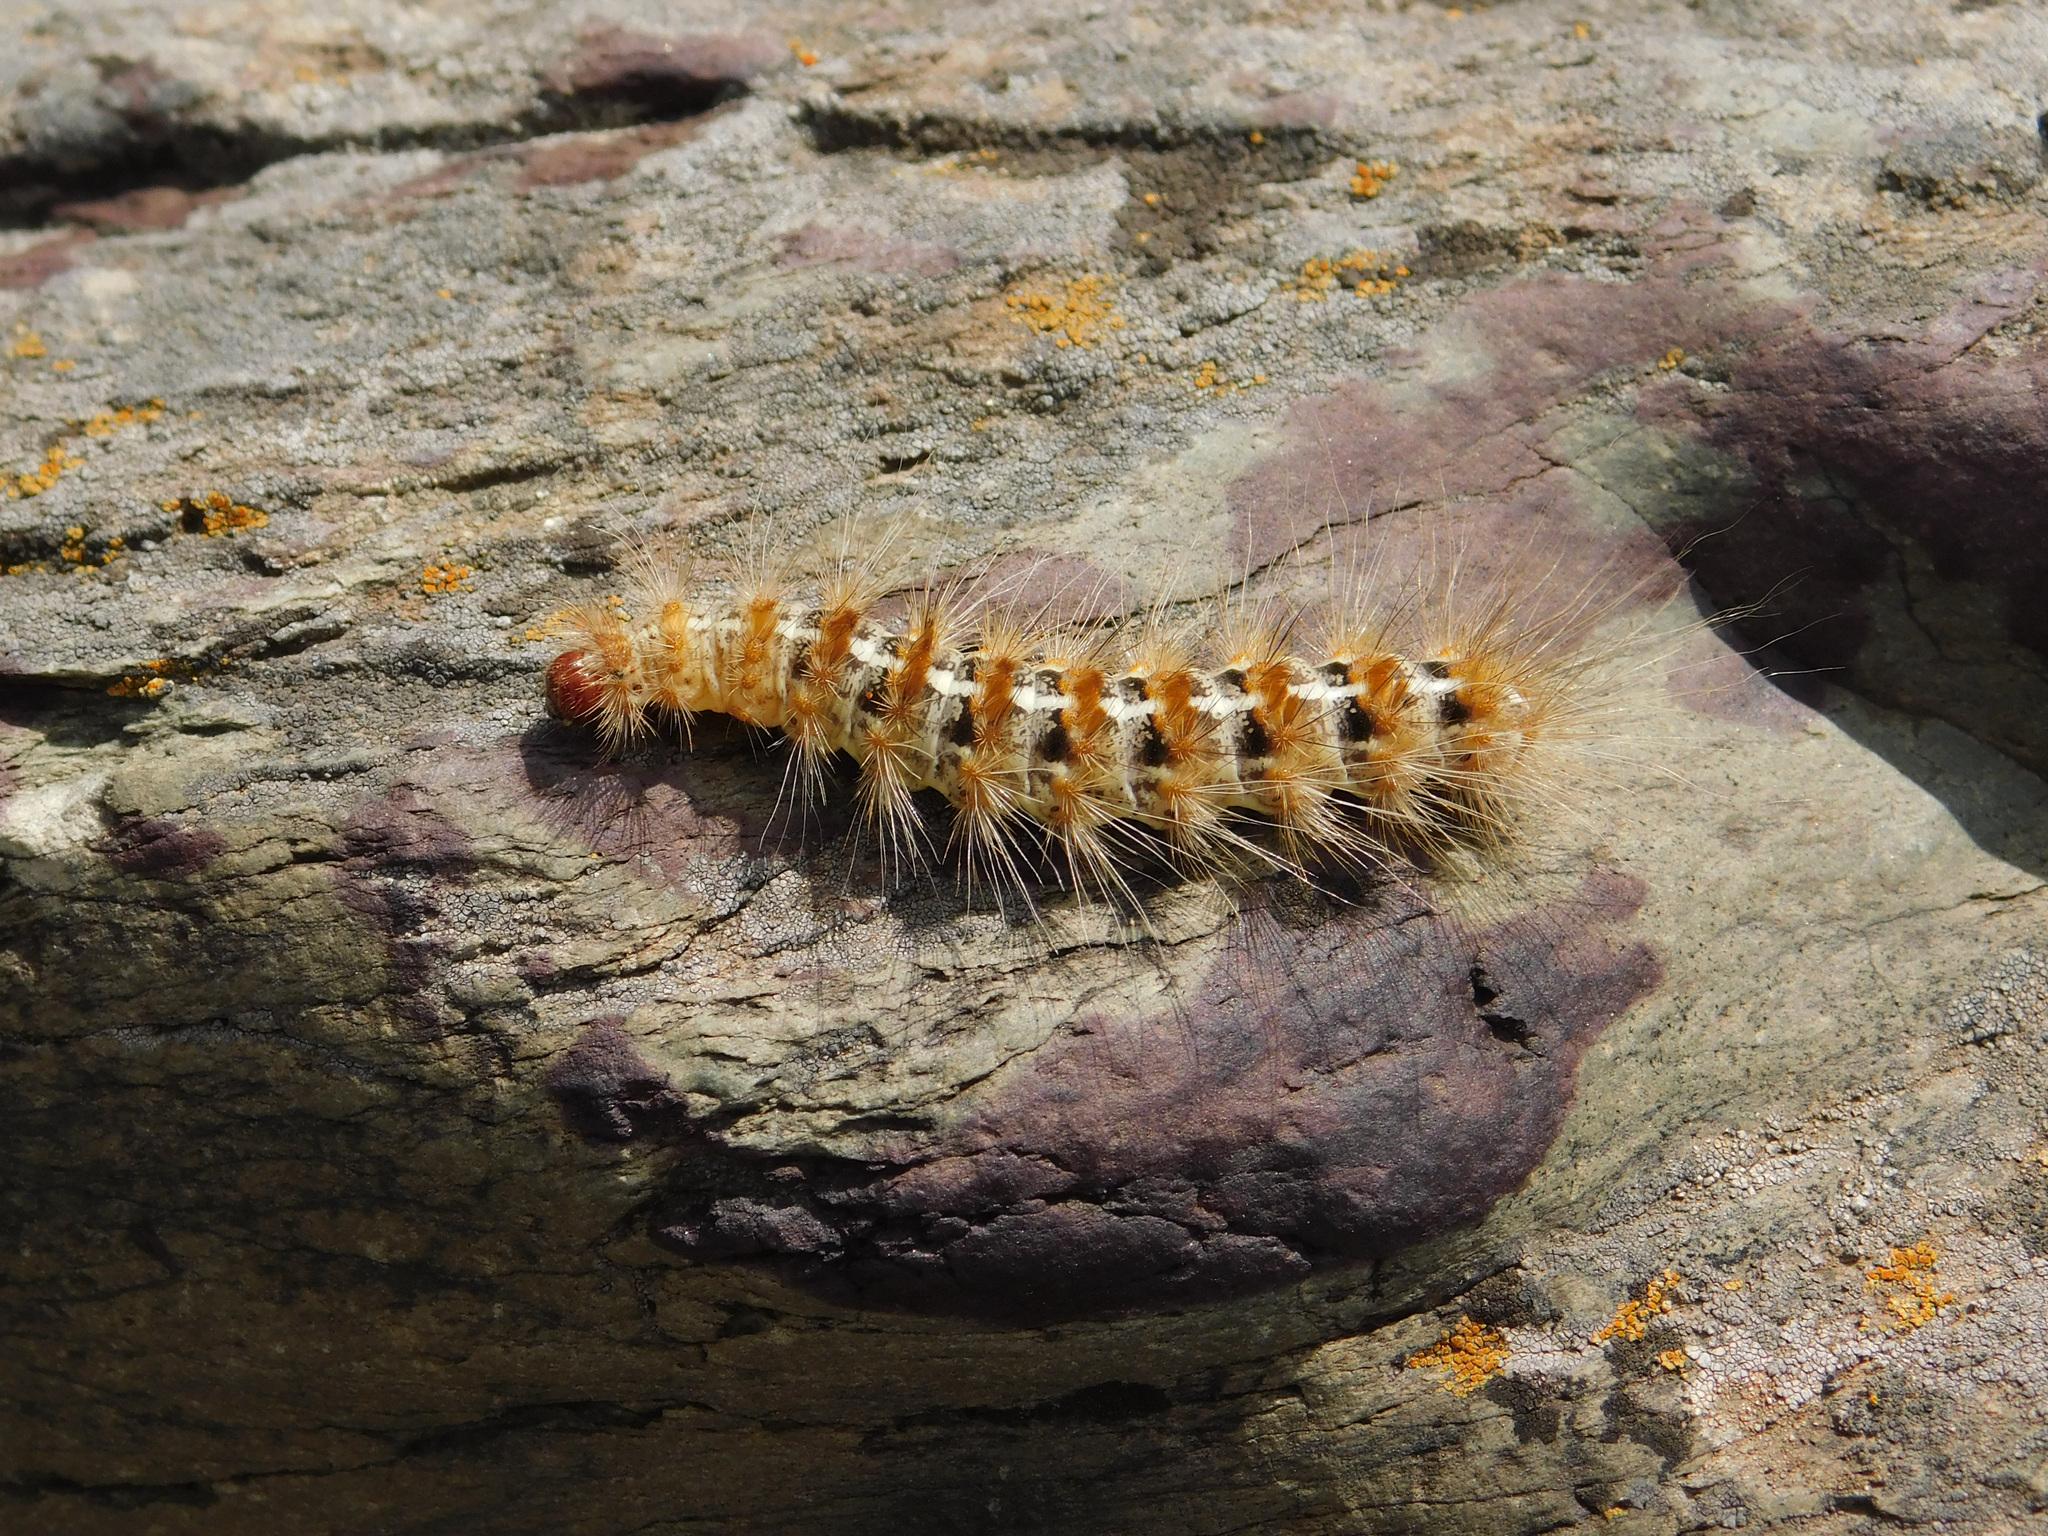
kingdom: Animalia
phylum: Arthropoda
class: Insecta
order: Lepidoptera
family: Erebidae
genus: Paracles
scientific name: Paracles deserticola
